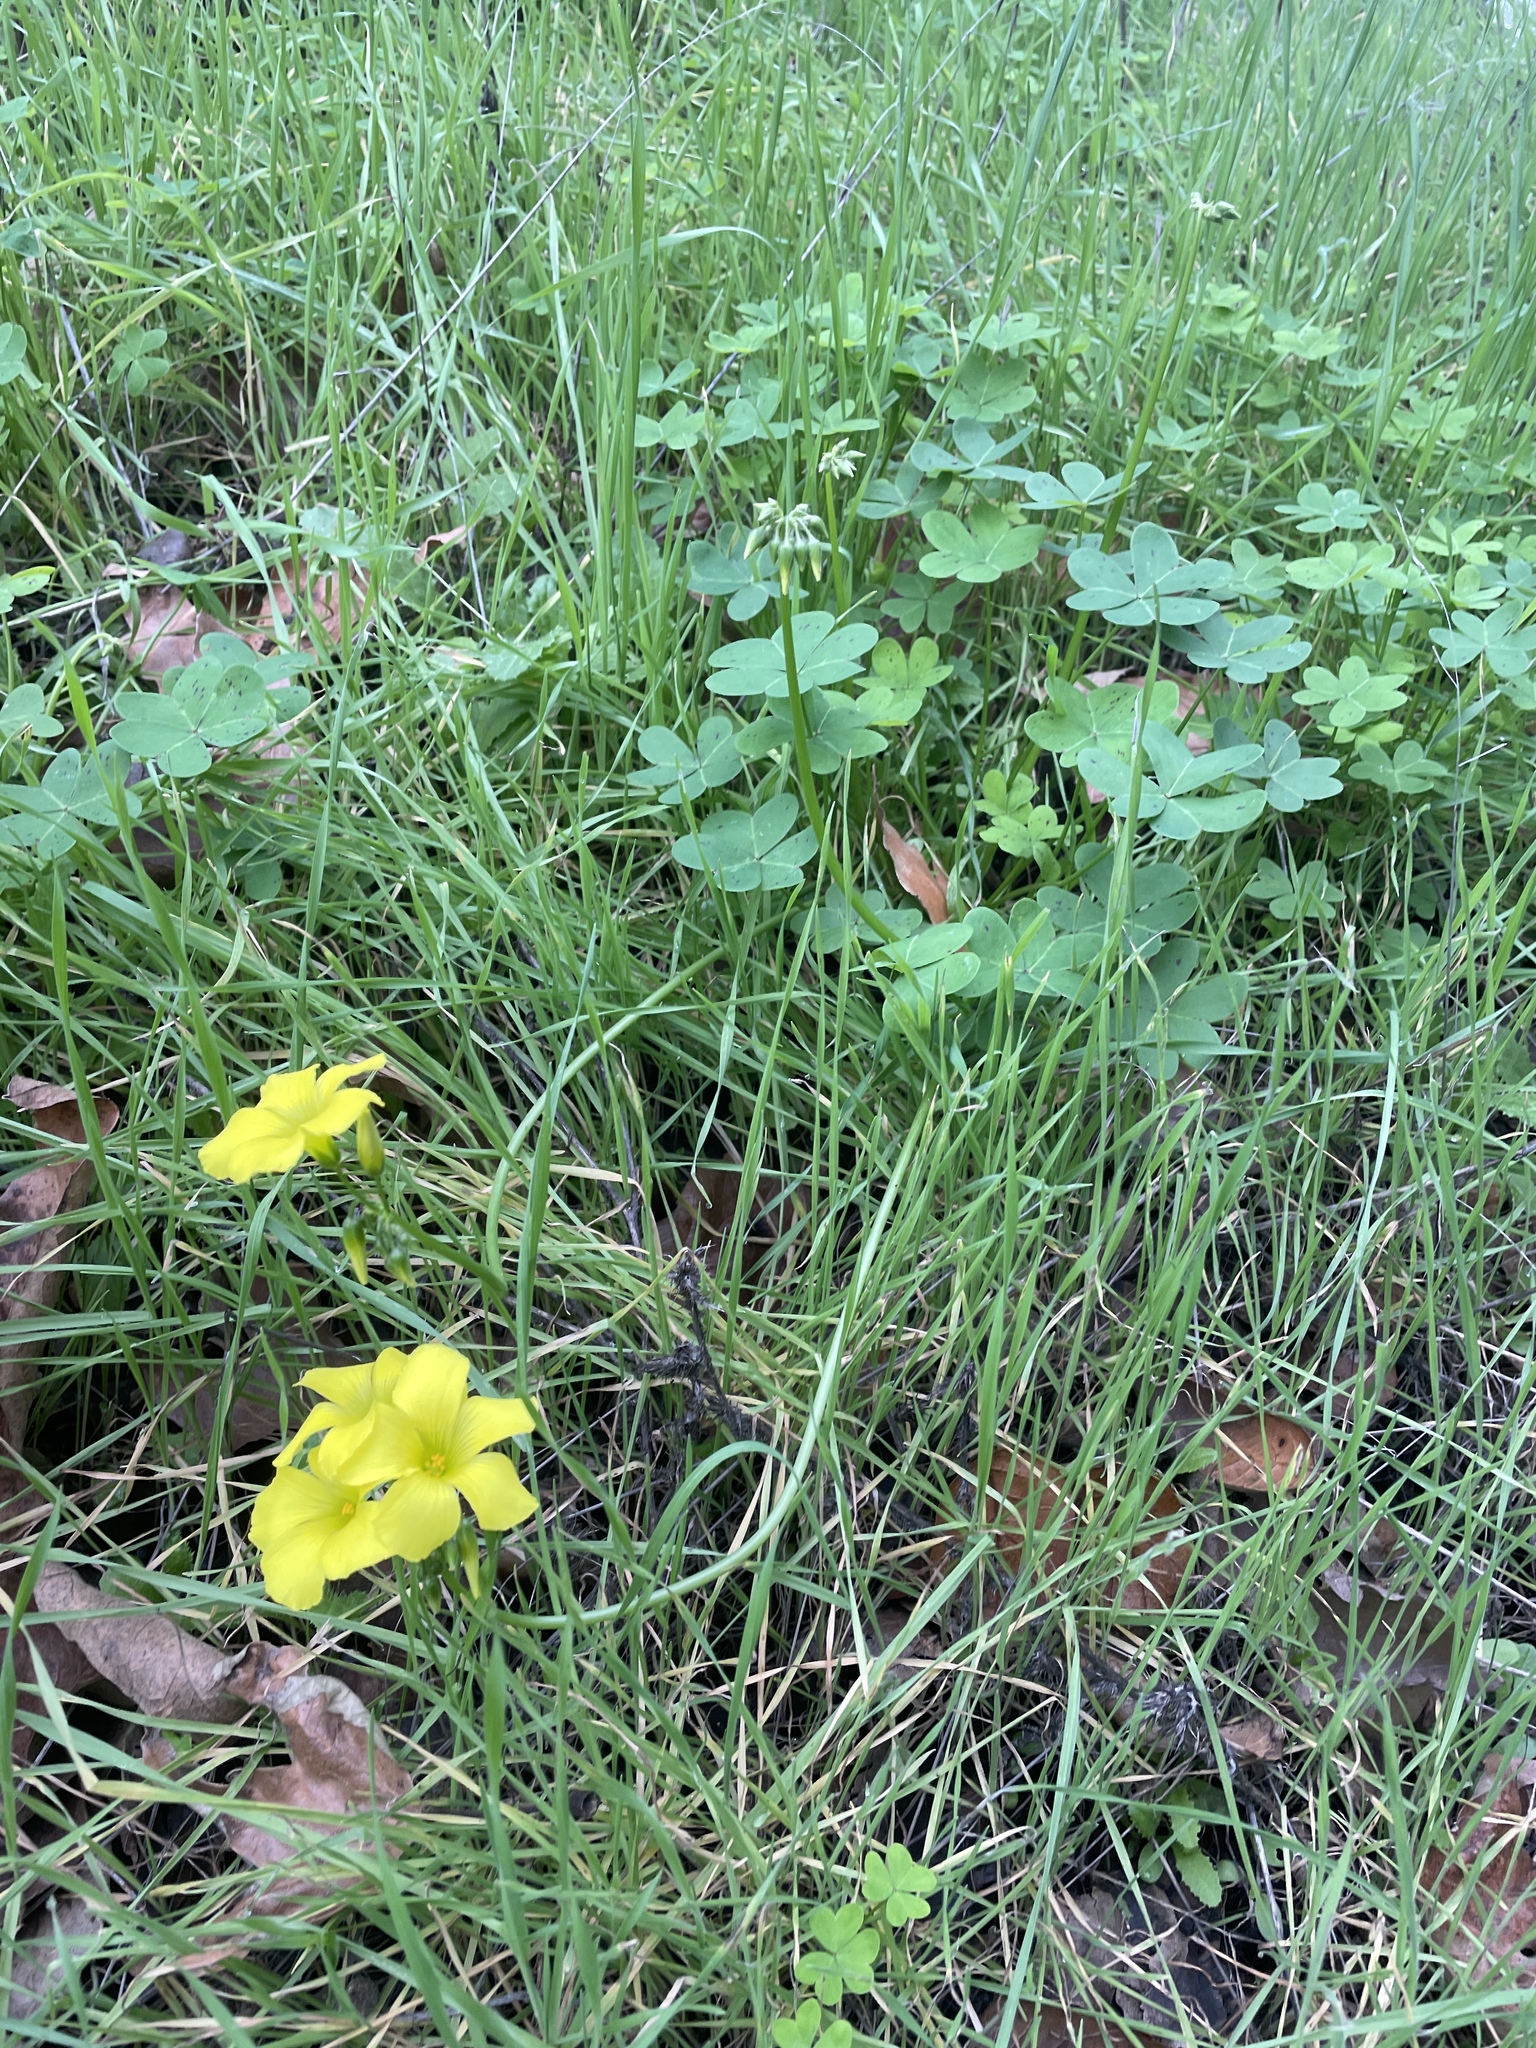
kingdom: Plantae
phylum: Tracheophyta
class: Magnoliopsida
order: Oxalidales
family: Oxalidaceae
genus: Oxalis
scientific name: Oxalis pes-caprae
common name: Bermuda-buttercup
